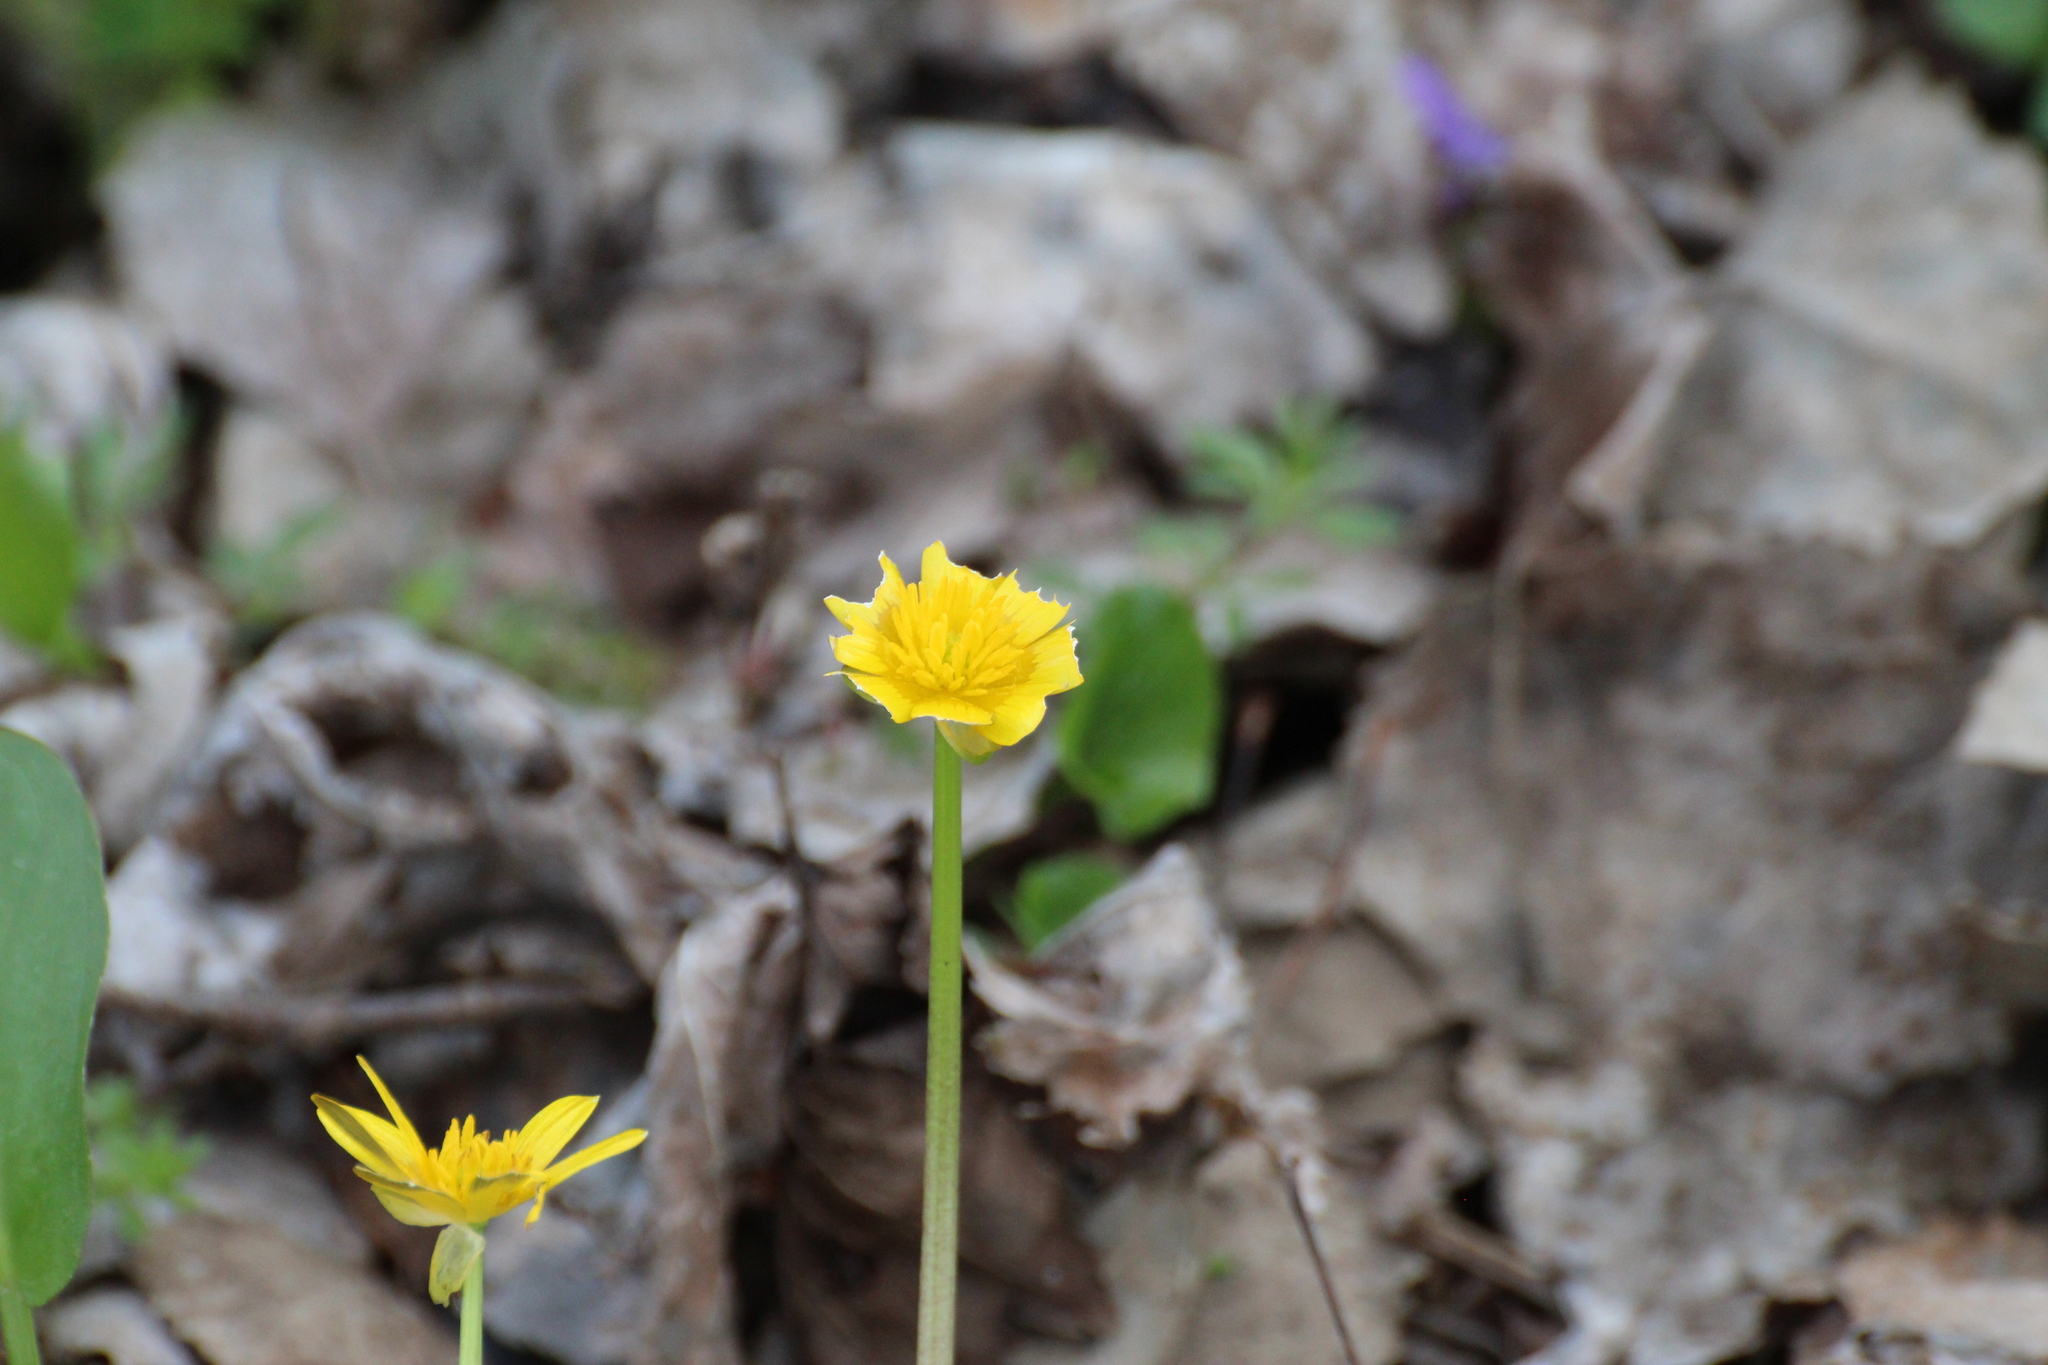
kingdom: Plantae
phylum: Tracheophyta
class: Magnoliopsida
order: Ranunculales
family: Ranunculaceae
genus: Ficaria
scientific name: Ficaria verna
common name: Lesser celandine
